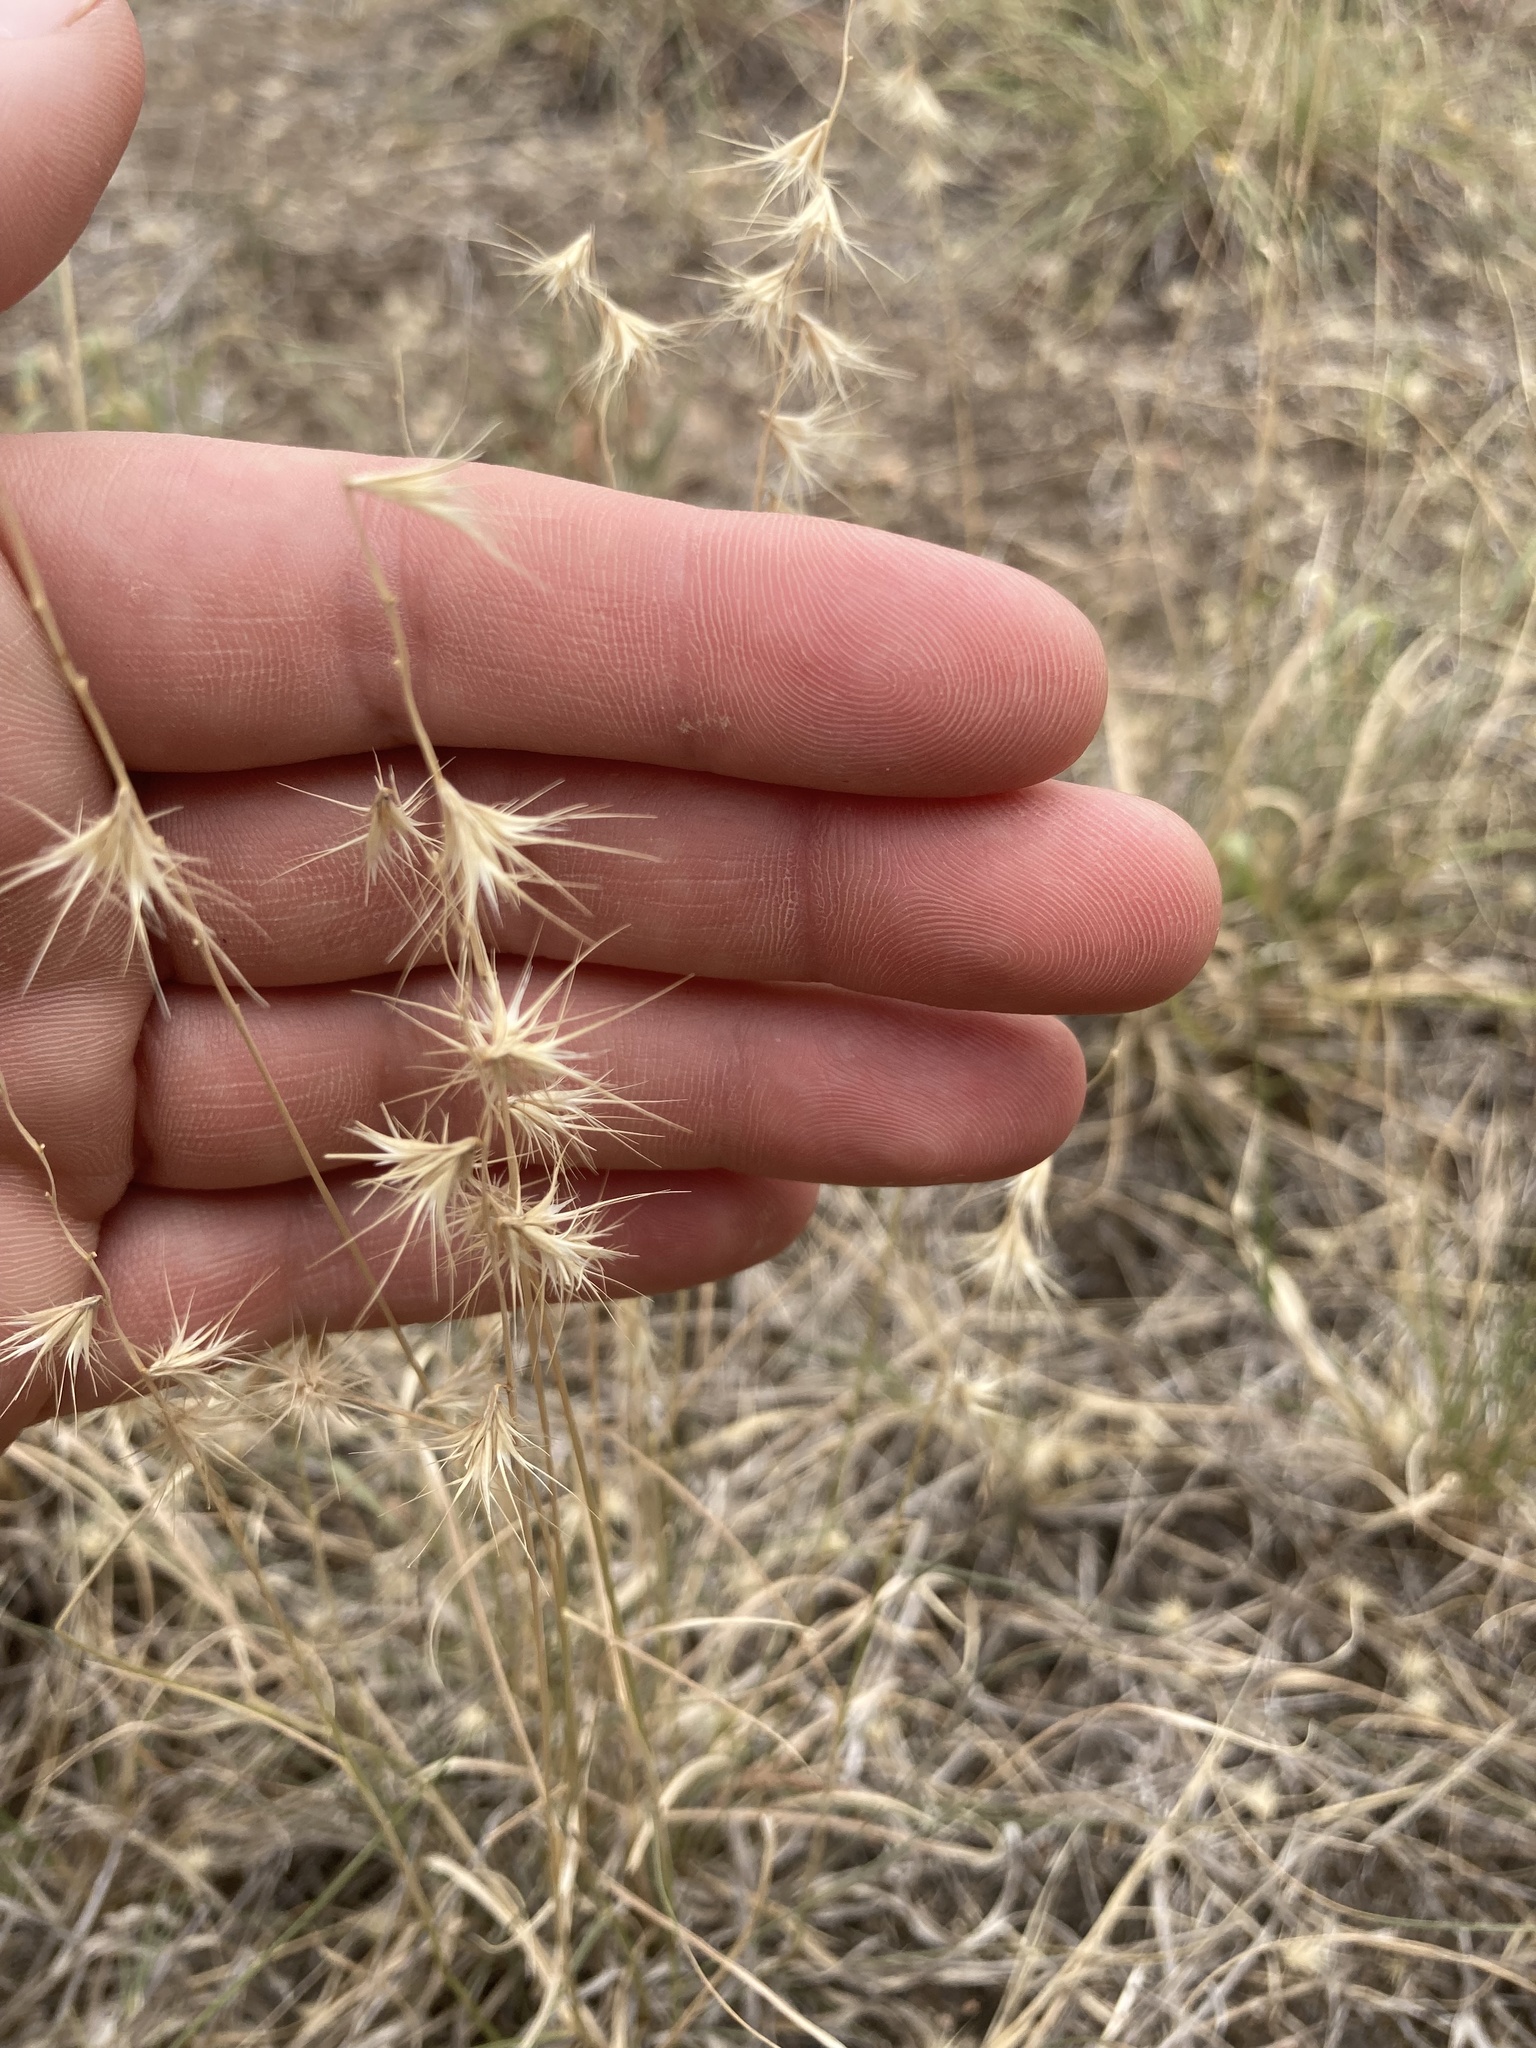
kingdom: Plantae
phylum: Tracheophyta
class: Liliopsida
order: Poales
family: Poaceae
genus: Bouteloua
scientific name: Bouteloua rigidiseta
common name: Texas grama
